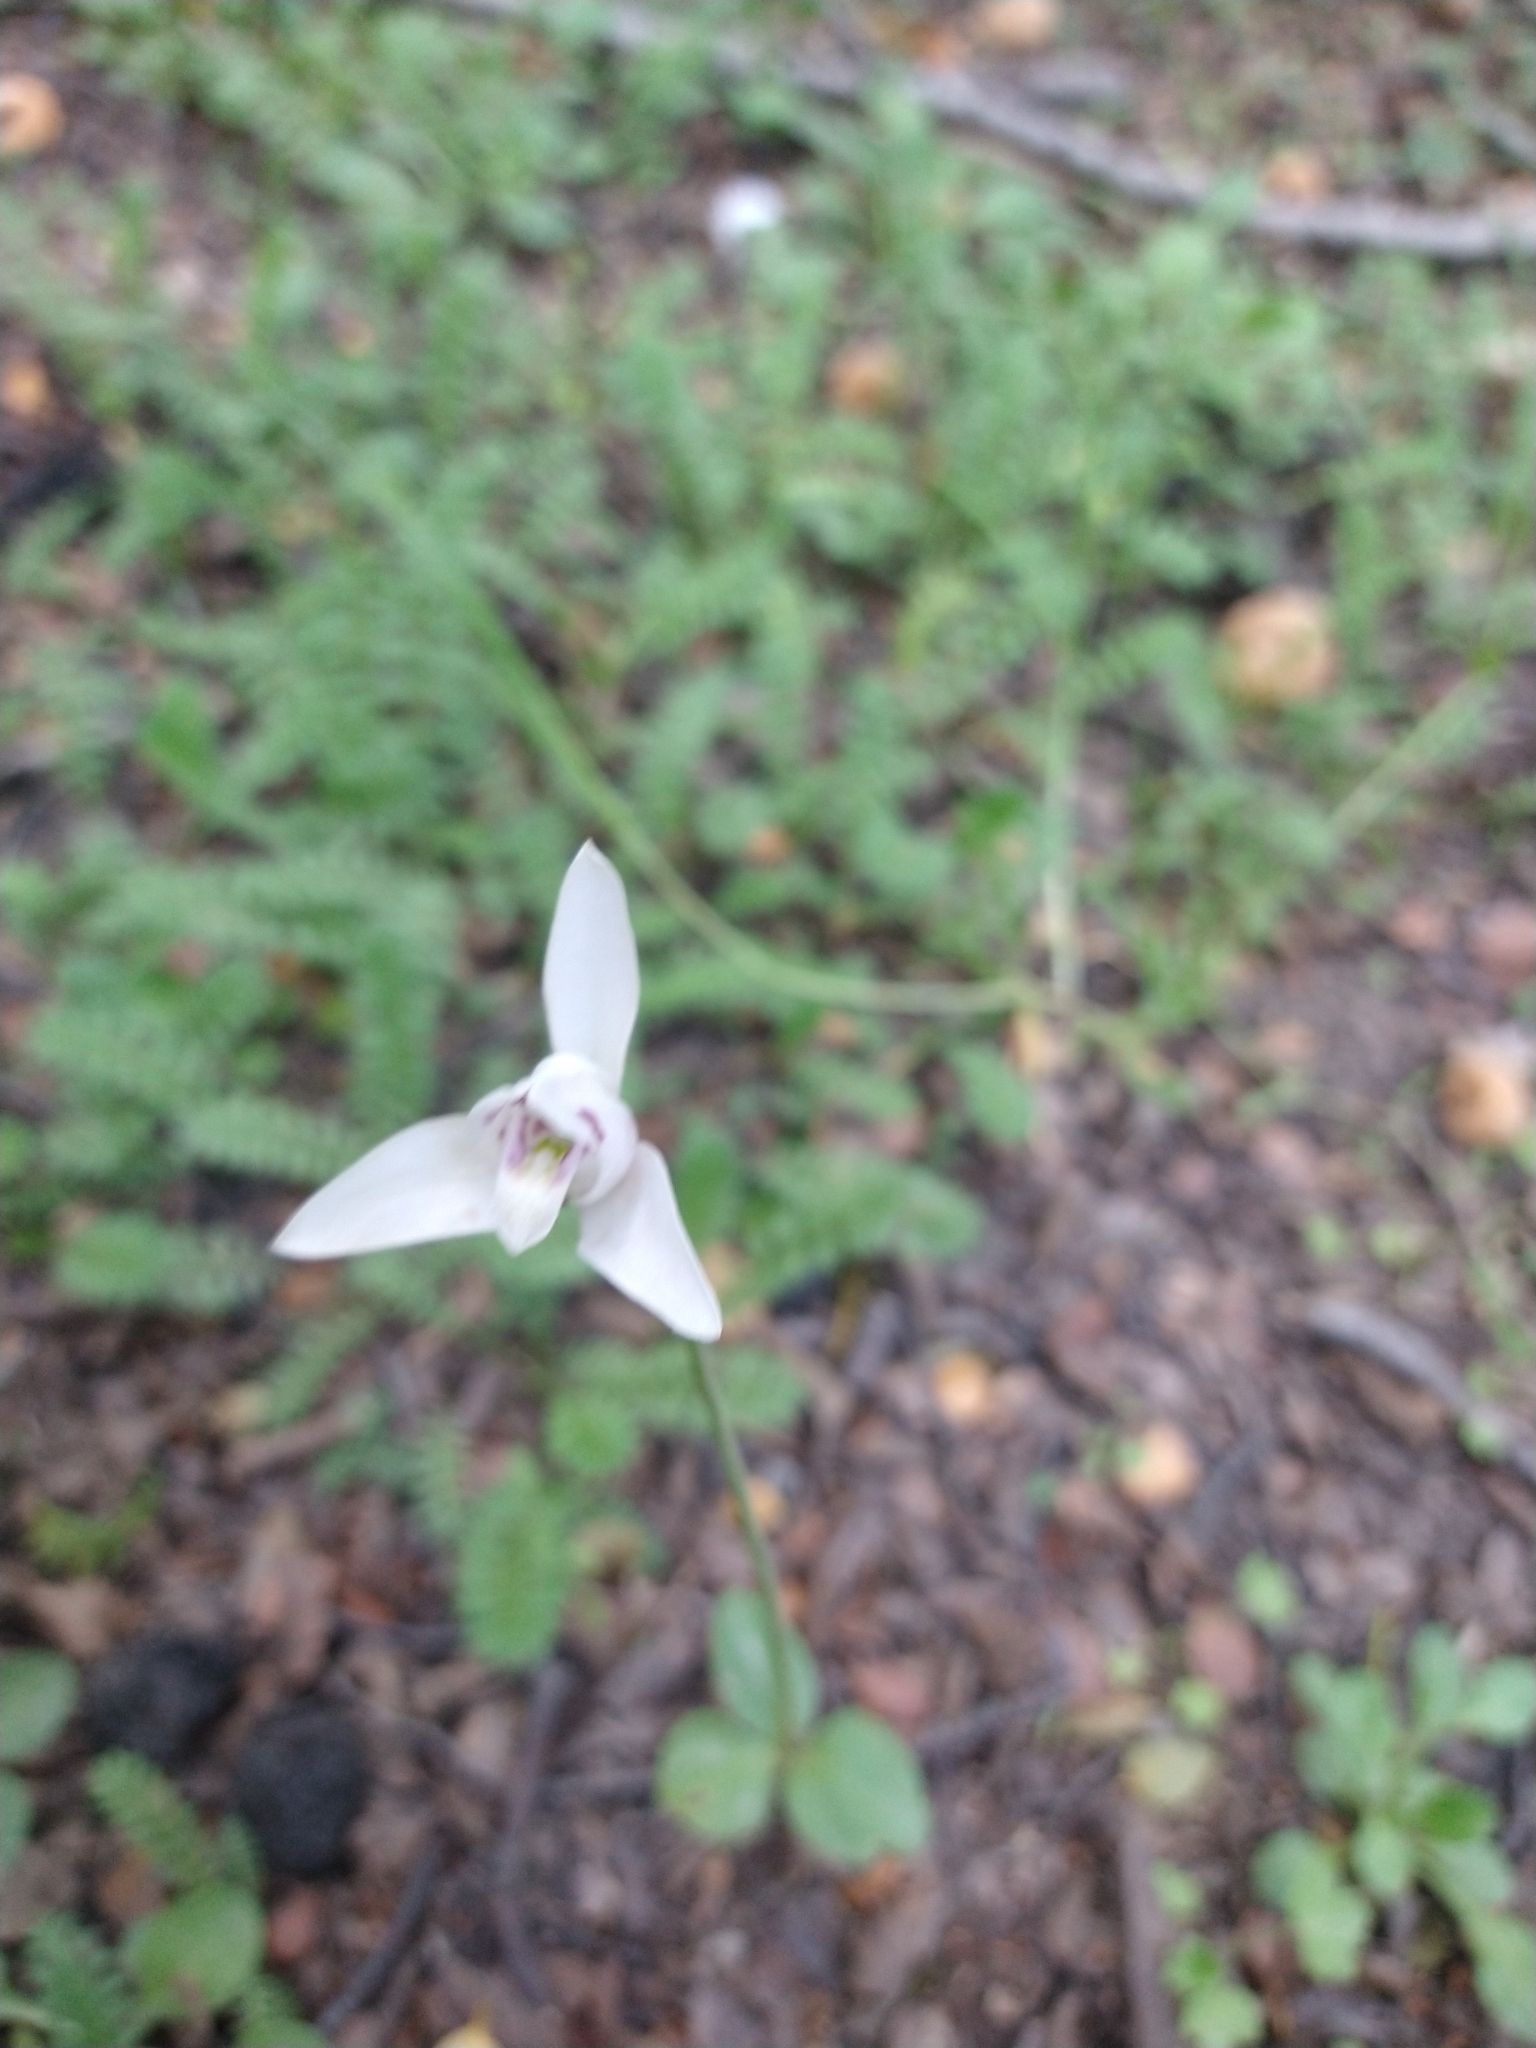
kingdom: Plantae
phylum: Tracheophyta
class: Liliopsida
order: Asparagales
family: Orchidaceae
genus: Codonorchis
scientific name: Codonorchis lessonii
